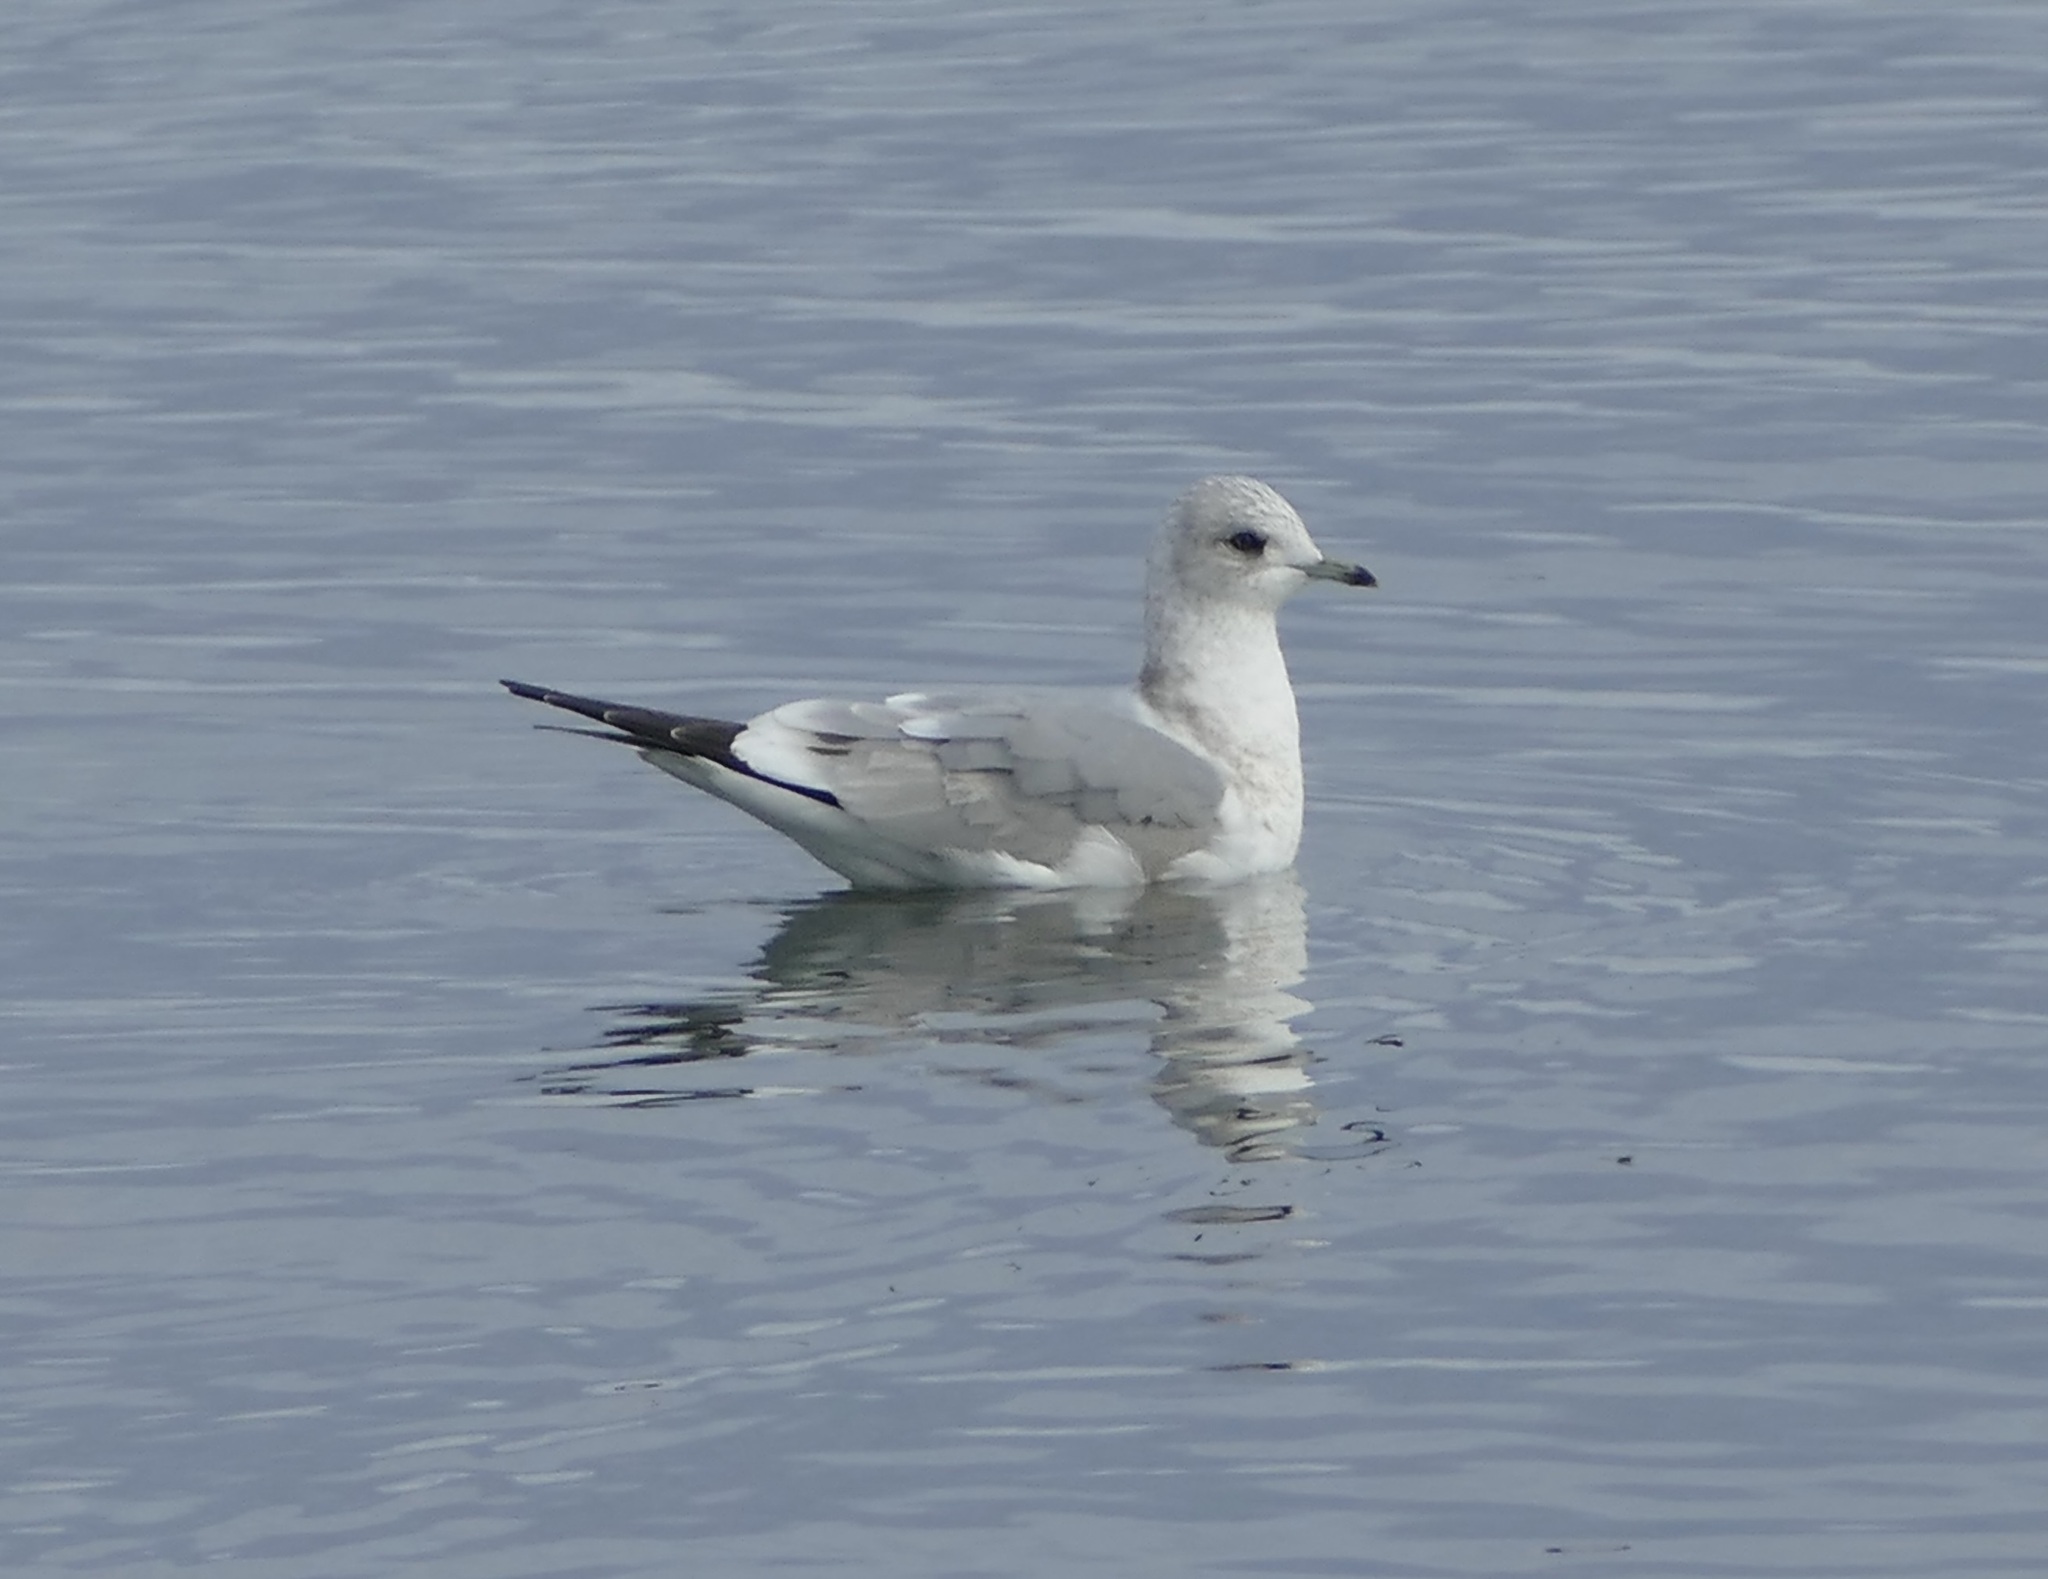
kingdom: Animalia
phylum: Chordata
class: Aves
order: Charadriiformes
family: Laridae
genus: Larus
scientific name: Larus brachyrhynchus
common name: Short-billed gull
